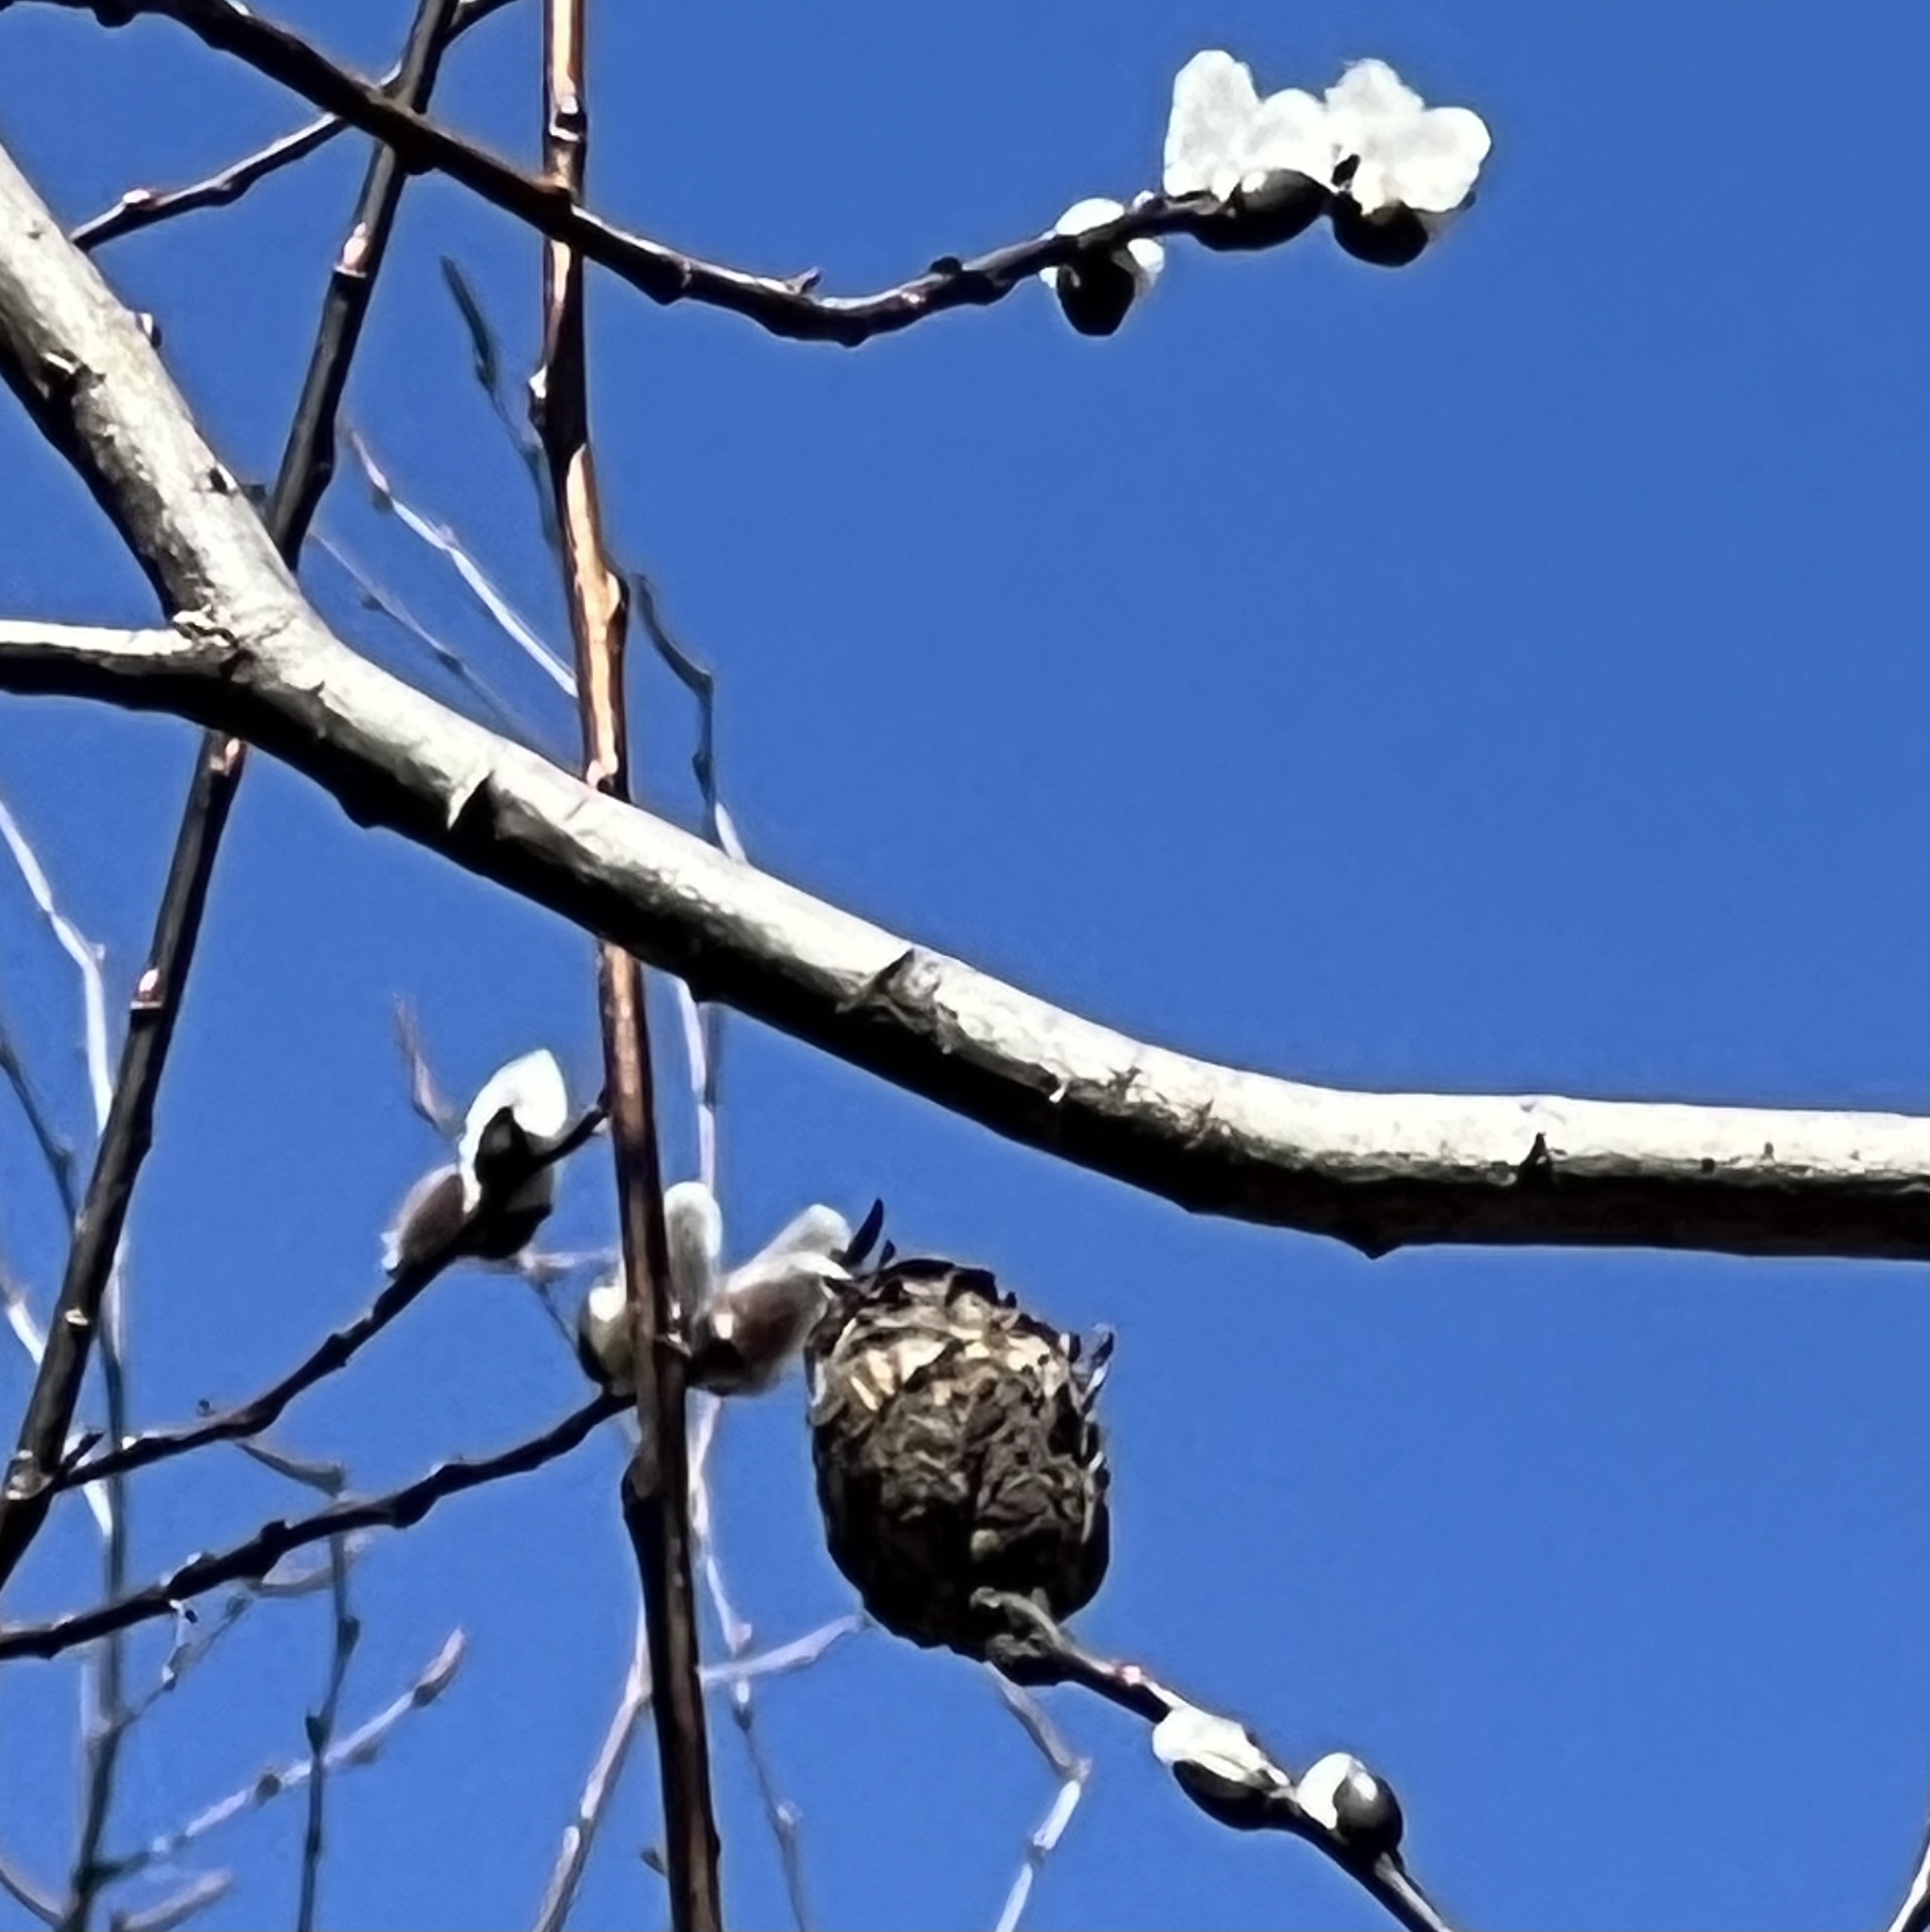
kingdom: Animalia
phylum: Arthropoda
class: Insecta
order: Diptera
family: Cecidomyiidae
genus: Rabdophaga
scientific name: Rabdophaga strobiloides
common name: Willow pinecone gall midge
